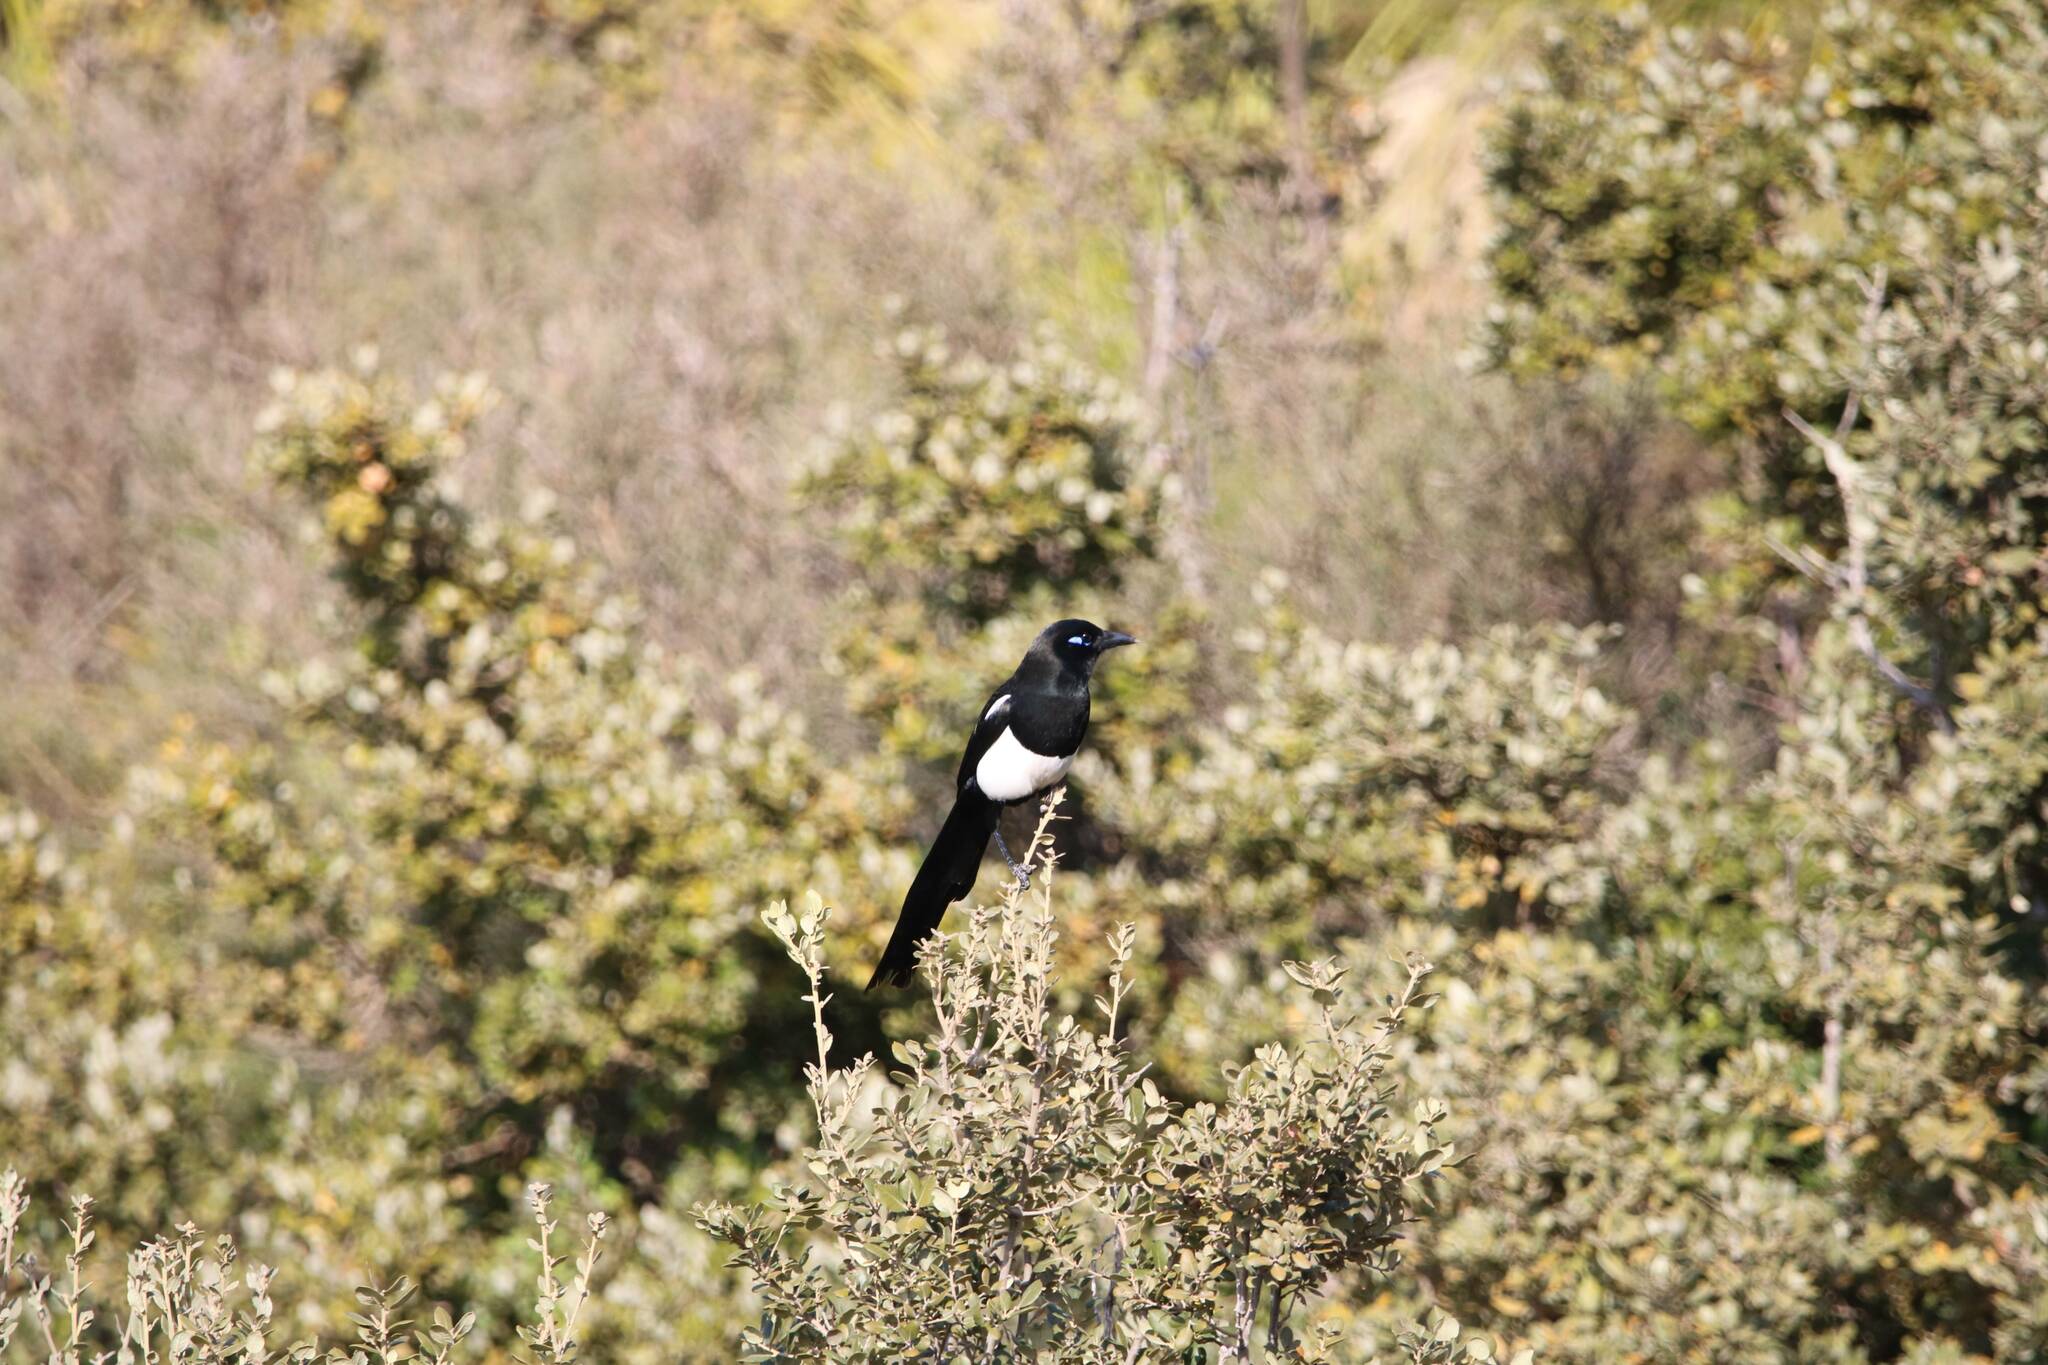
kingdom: Animalia
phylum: Chordata
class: Aves
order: Passeriformes
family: Corvidae
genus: Pica
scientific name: Pica mauritanica
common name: Maghreb magpie
